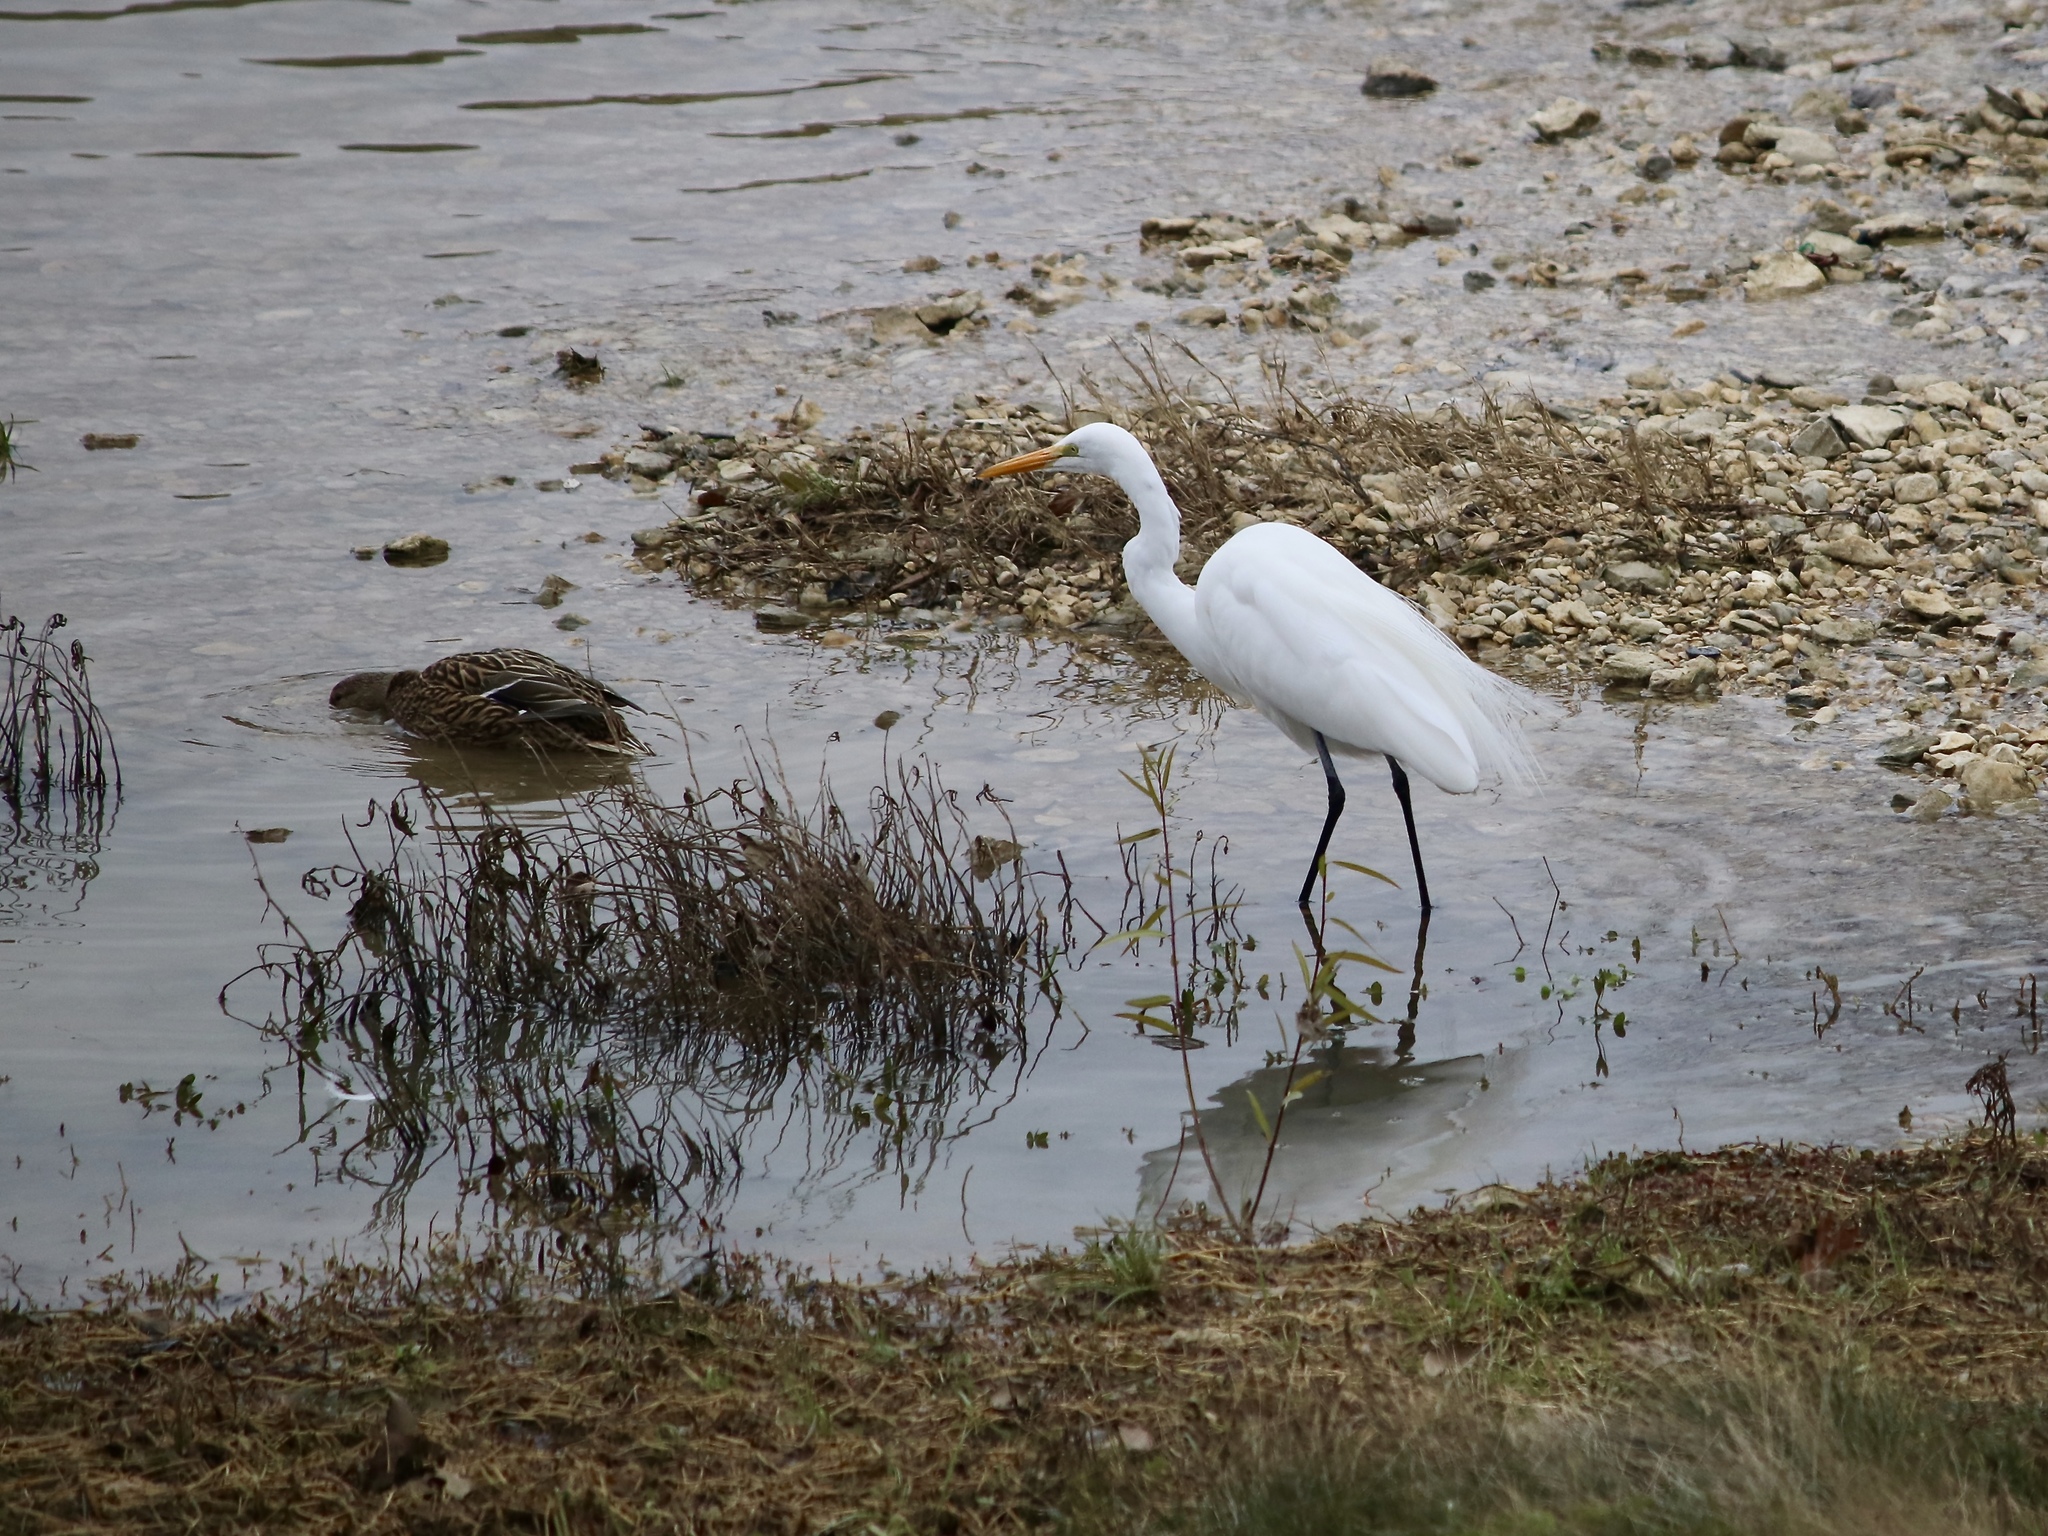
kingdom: Animalia
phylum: Chordata
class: Aves
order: Pelecaniformes
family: Ardeidae
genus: Ardea
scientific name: Ardea alba
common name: Great egret
